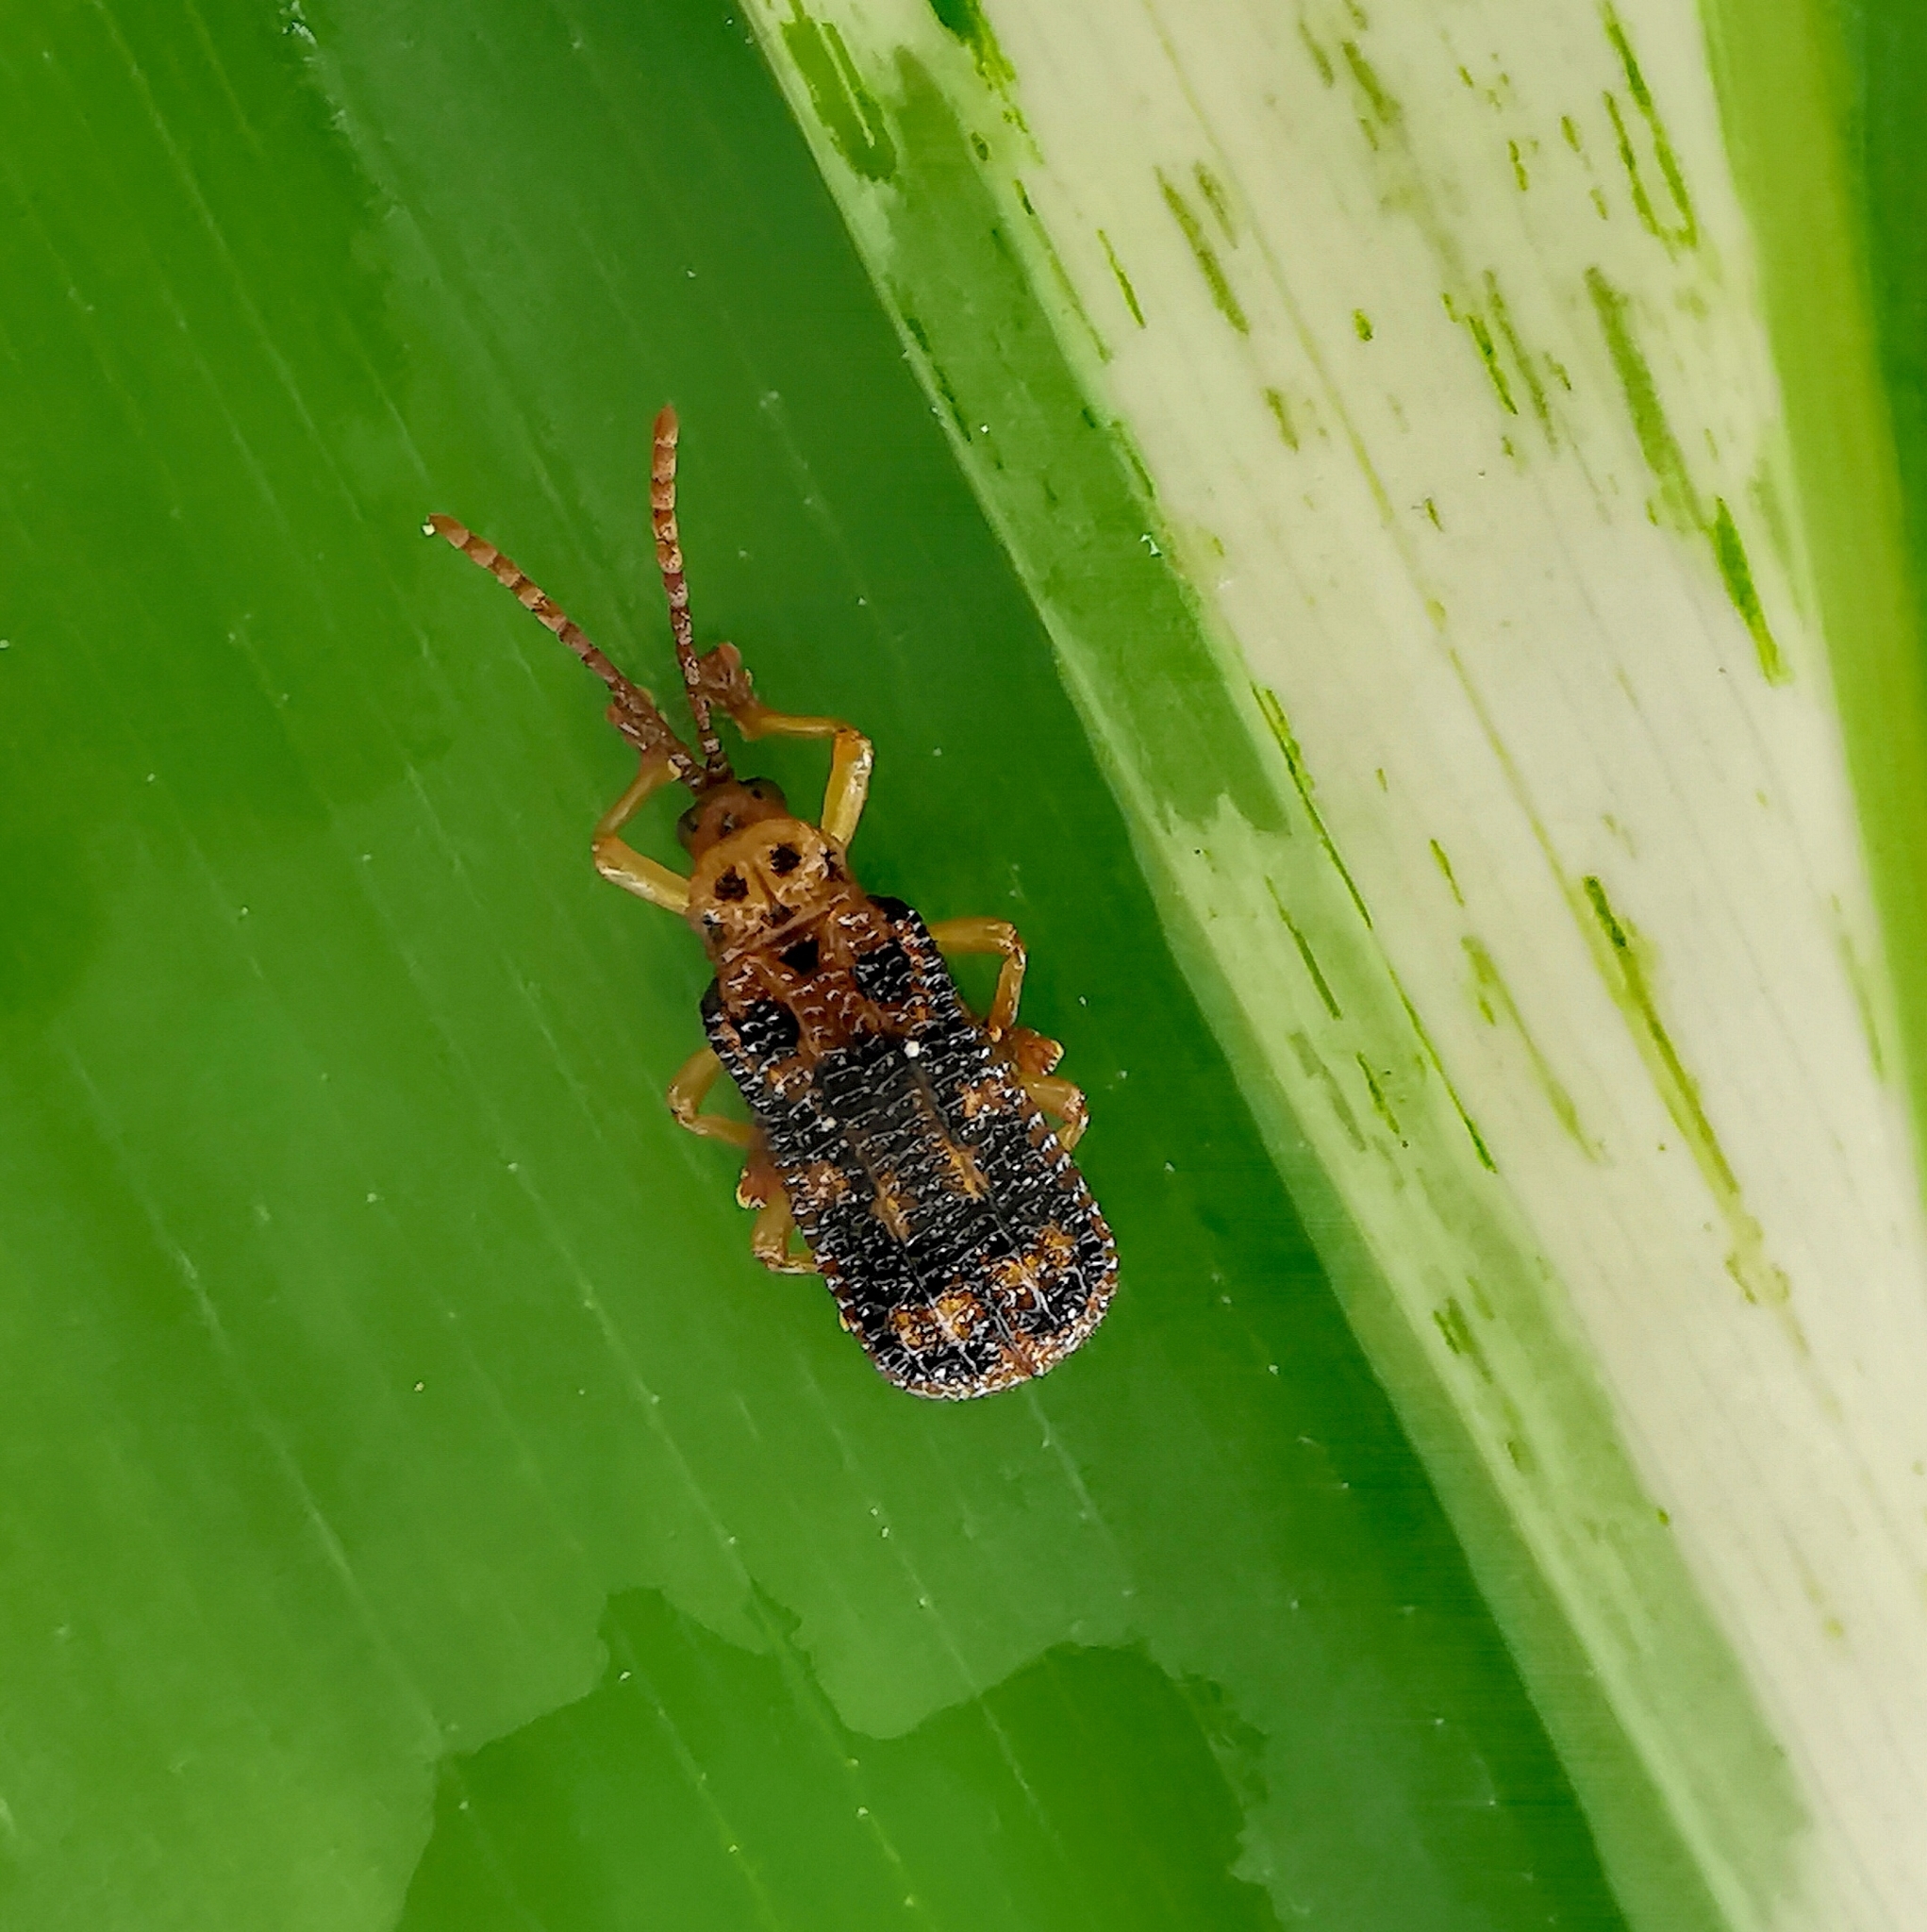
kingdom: Animalia
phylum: Arthropoda
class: Insecta
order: Coleoptera
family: Chrysomelidae
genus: Gonophora
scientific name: Gonophora pulchella
